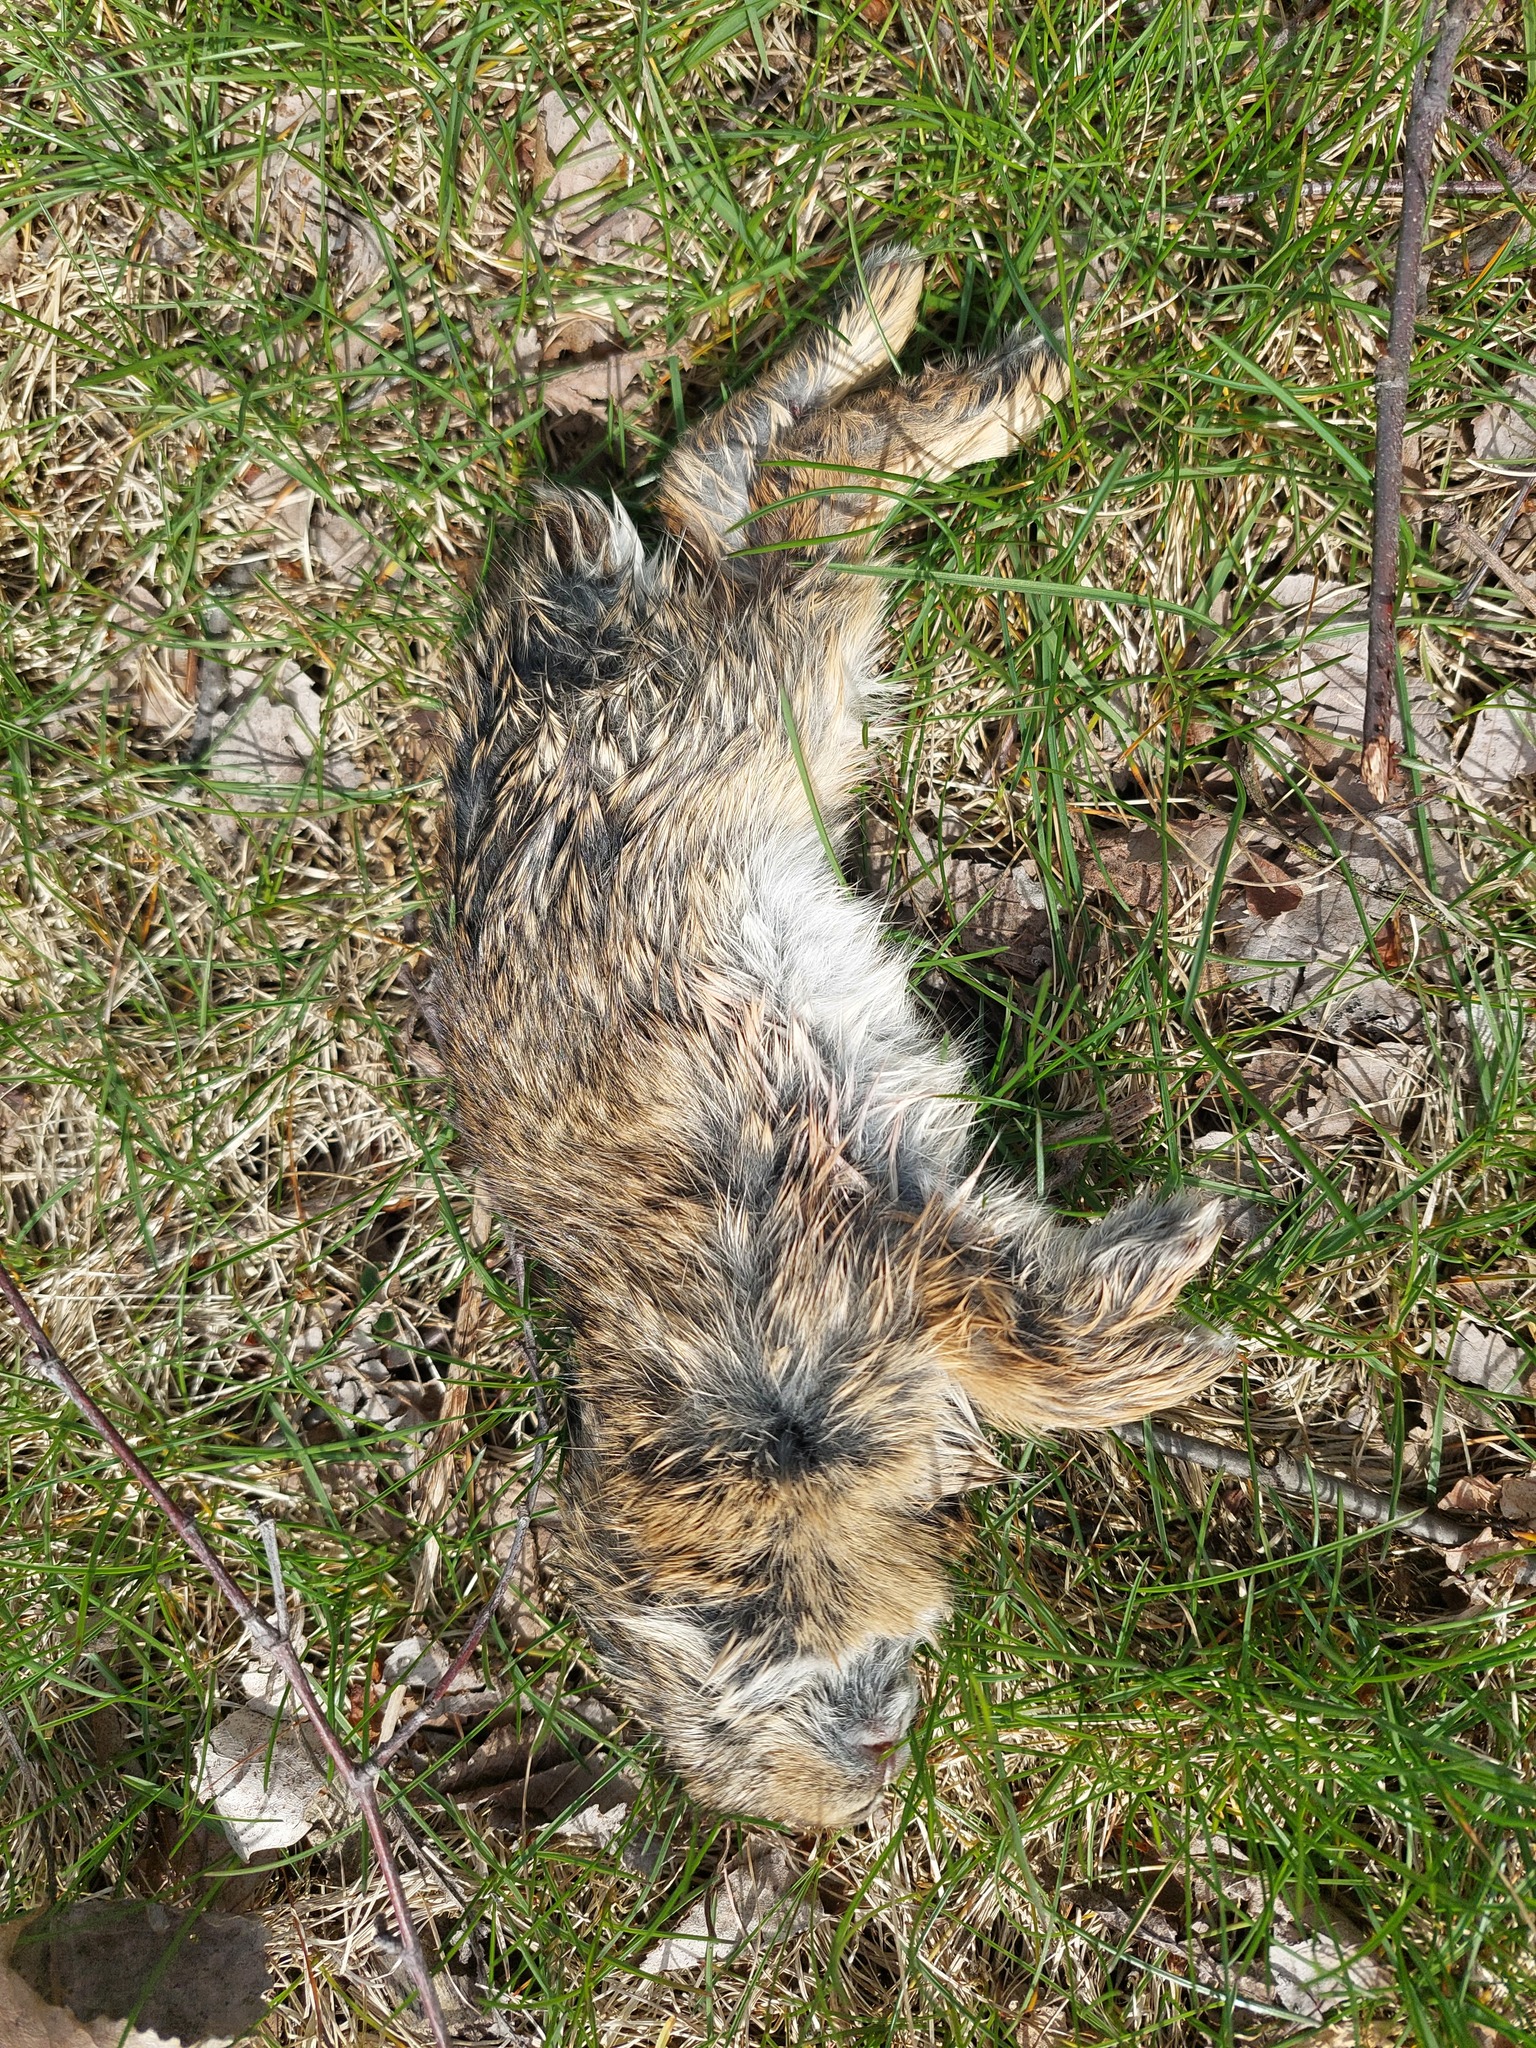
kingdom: Animalia
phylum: Chordata
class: Mammalia
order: Lagomorpha
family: Leporidae
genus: Sylvilagus
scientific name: Sylvilagus floridanus
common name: Eastern cottontail
